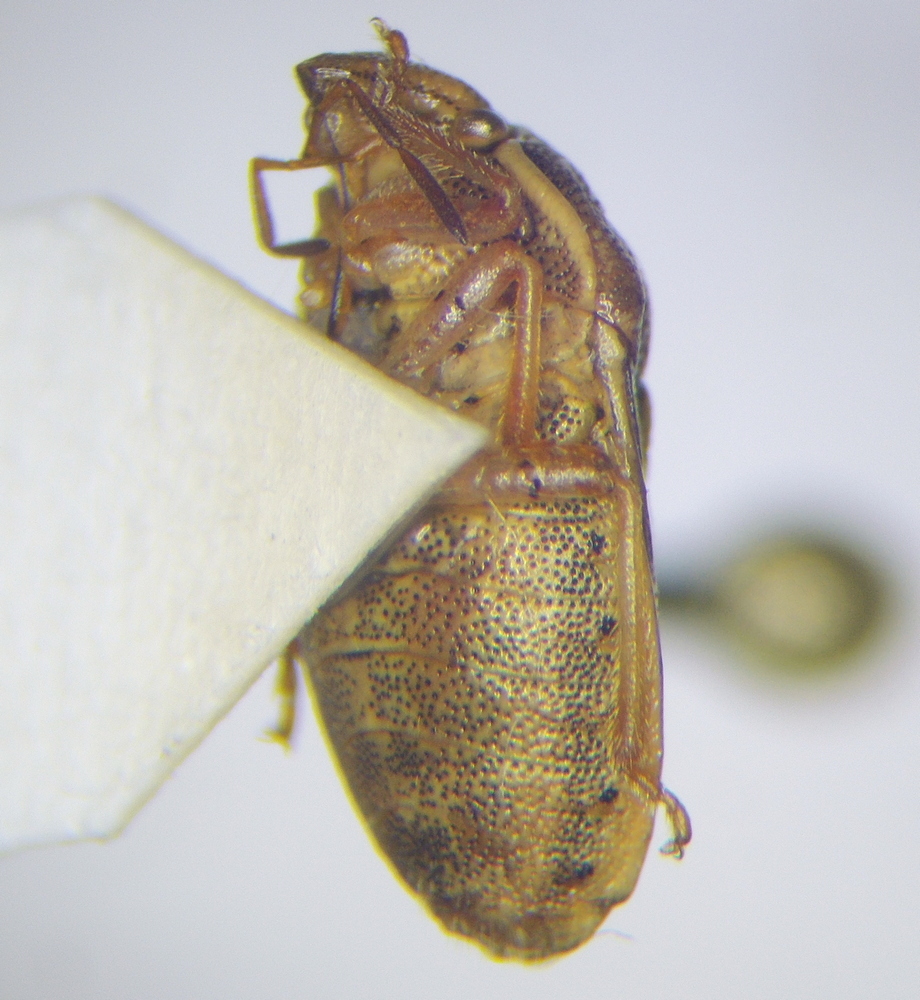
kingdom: Animalia
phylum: Arthropoda
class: Insecta
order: Hemiptera
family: Pentatomidae
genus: Neottiglossa
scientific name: Neottiglossa leporina
